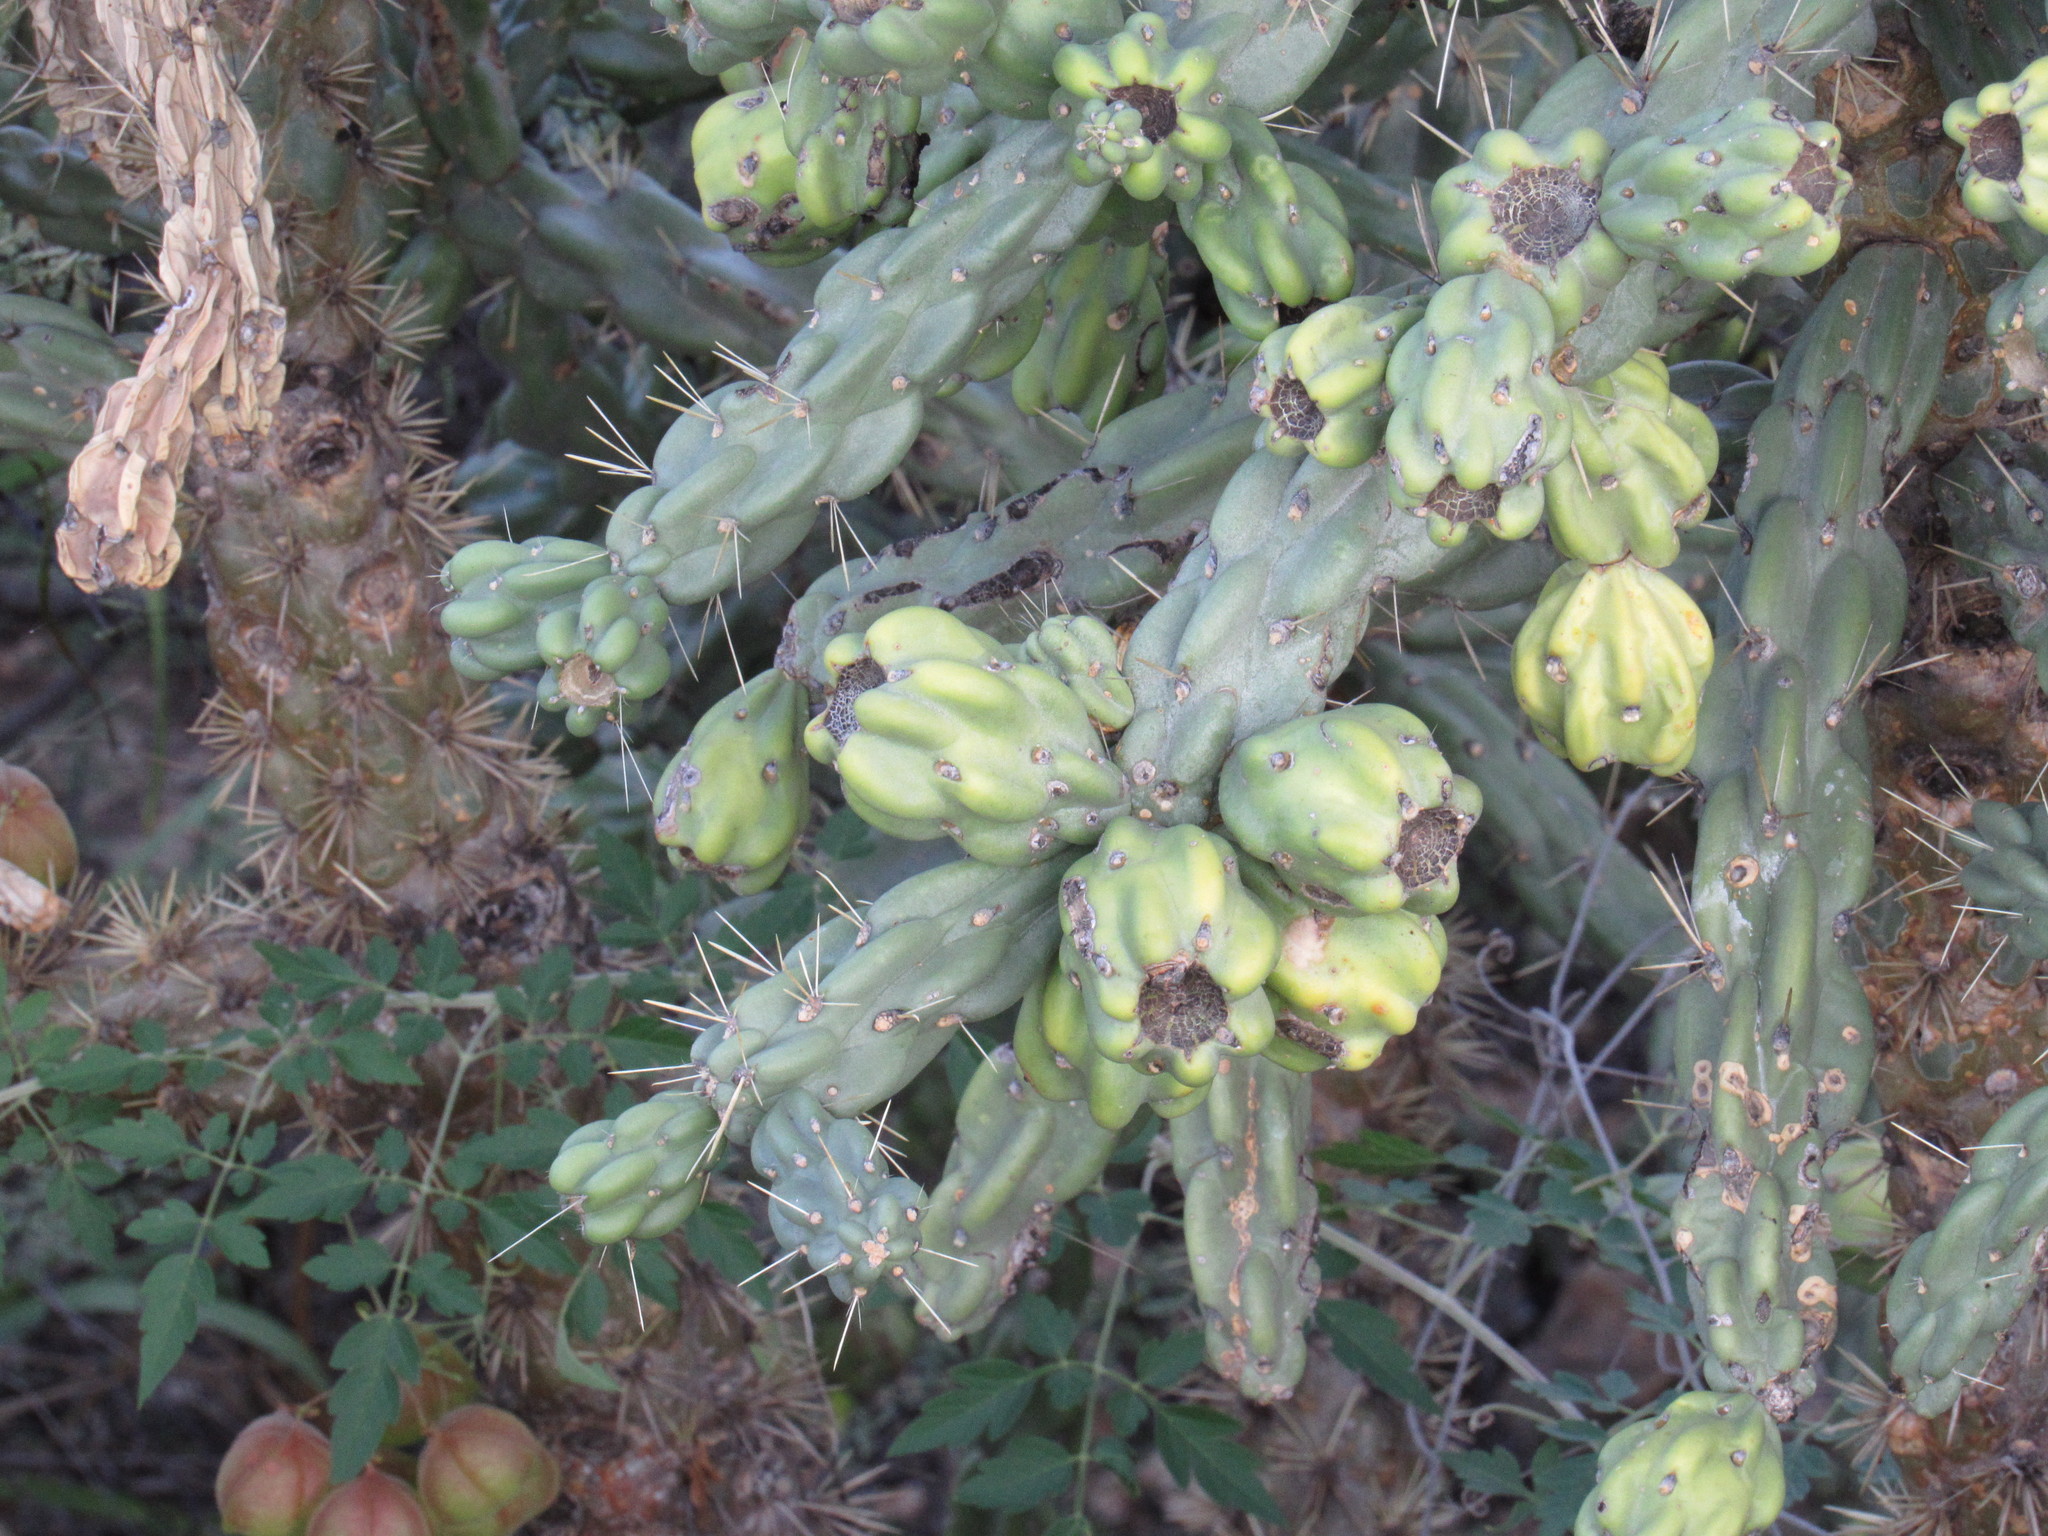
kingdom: Plantae
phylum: Tracheophyta
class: Magnoliopsida
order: Caryophyllales
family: Cactaceae
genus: Cylindropuntia
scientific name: Cylindropuntia imbricata
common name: Candelabrum cactus
